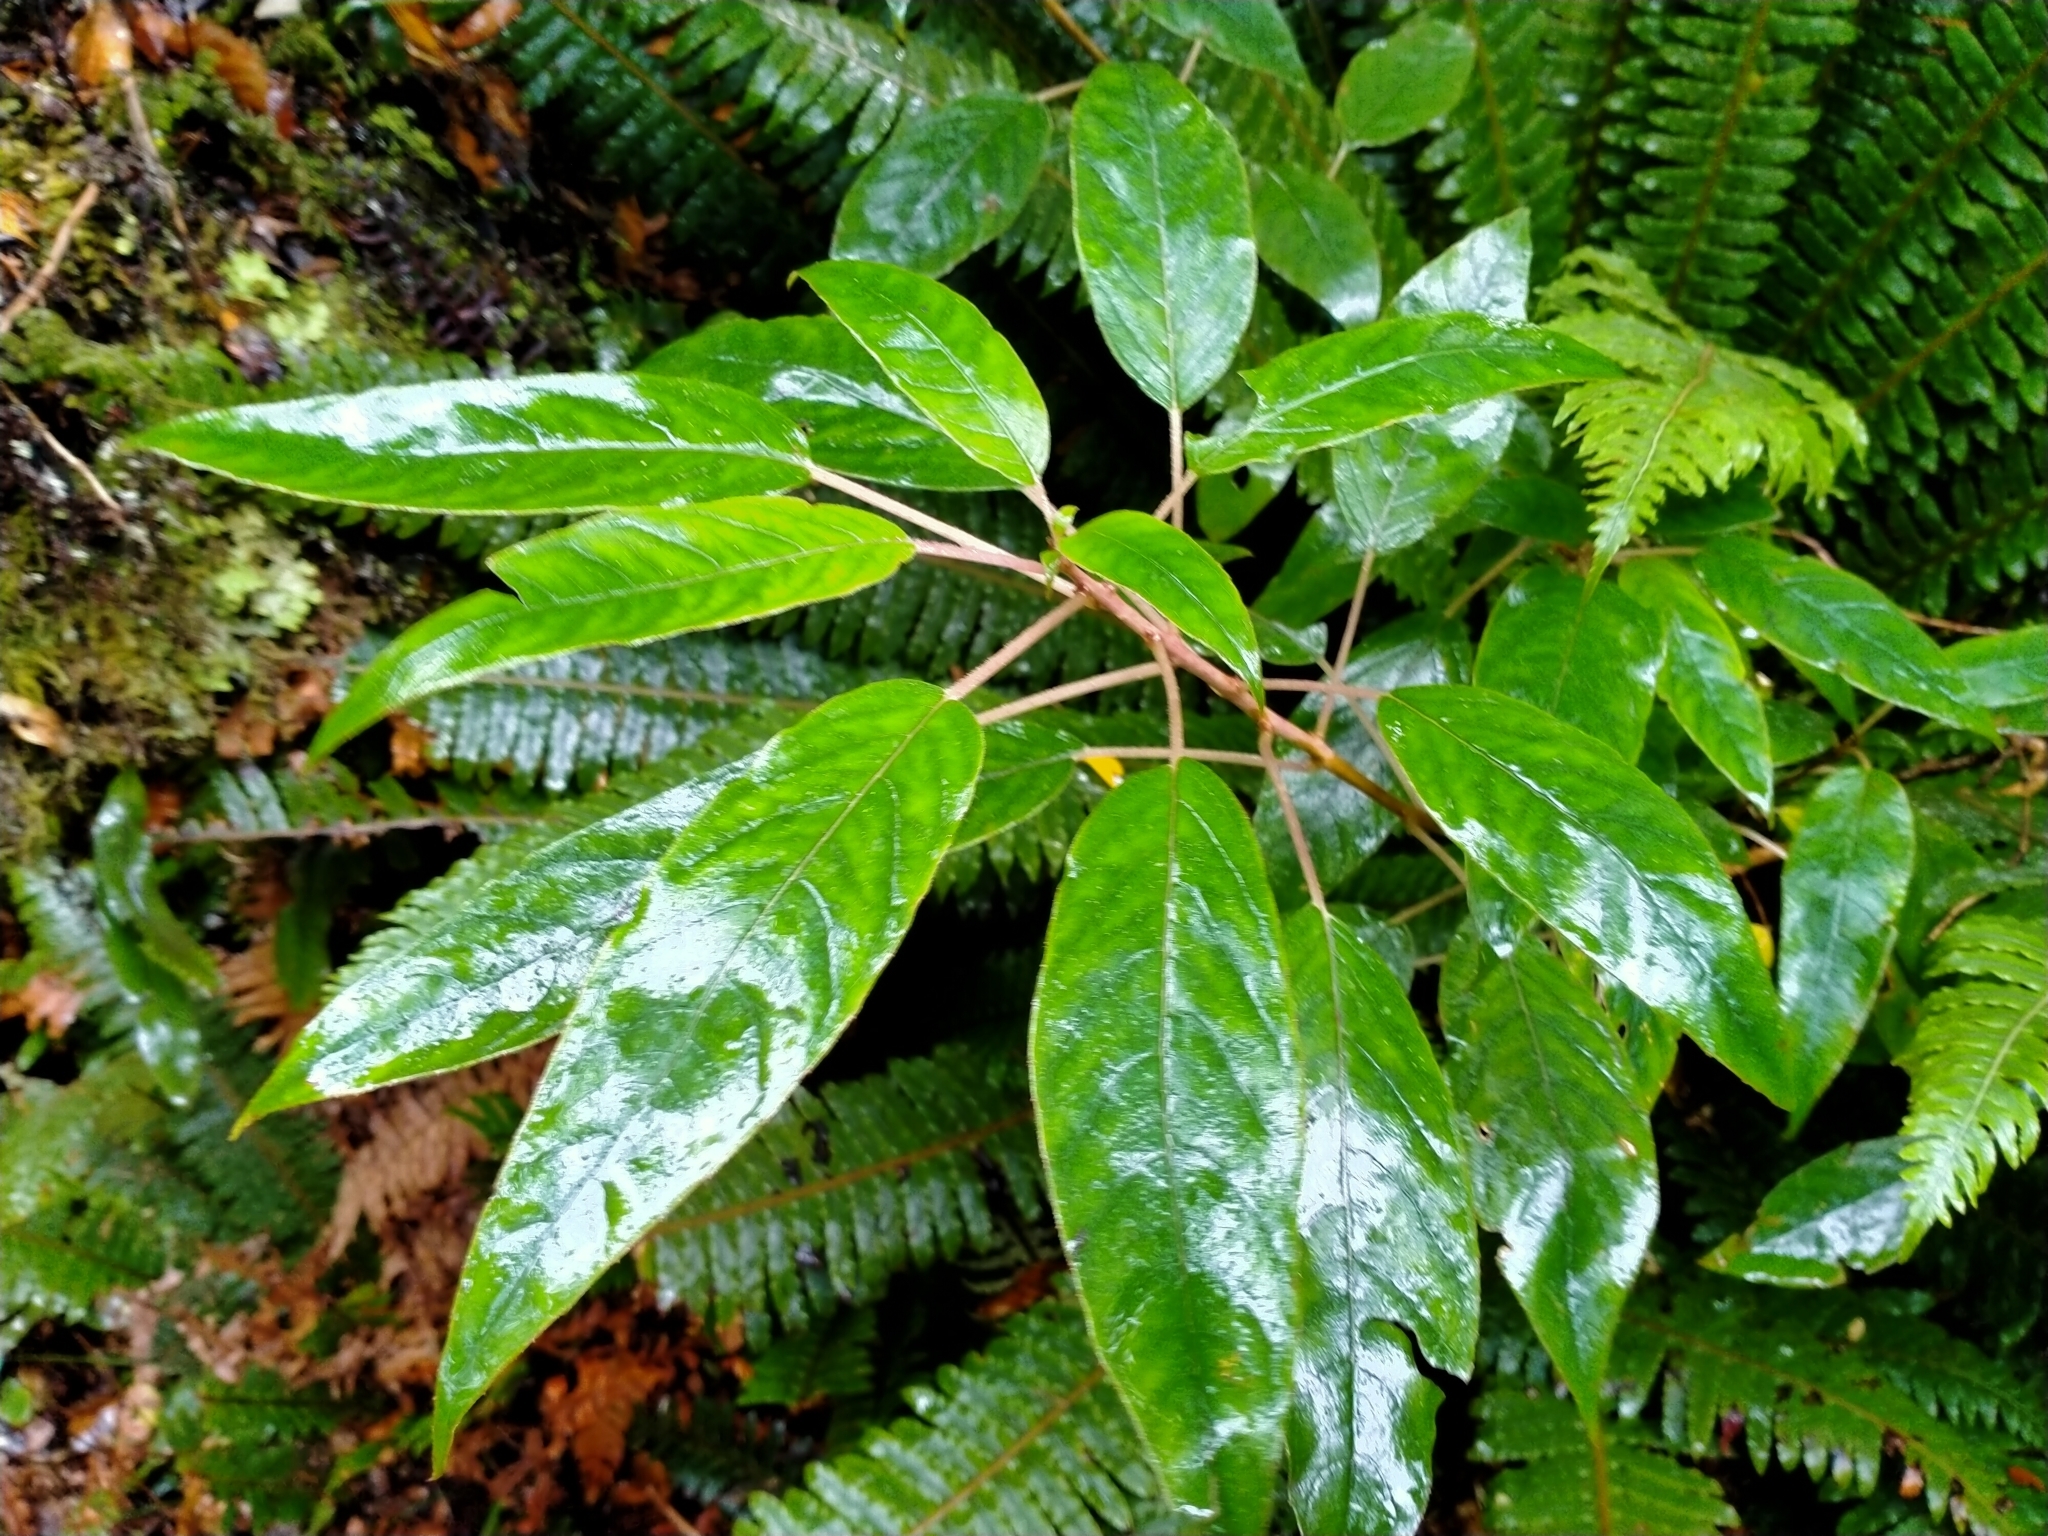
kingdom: Plantae
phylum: Tracheophyta
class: Magnoliopsida
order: Myrtales
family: Onagraceae
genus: Fuchsia
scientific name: Fuchsia excorticata
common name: Tree fuchsia
